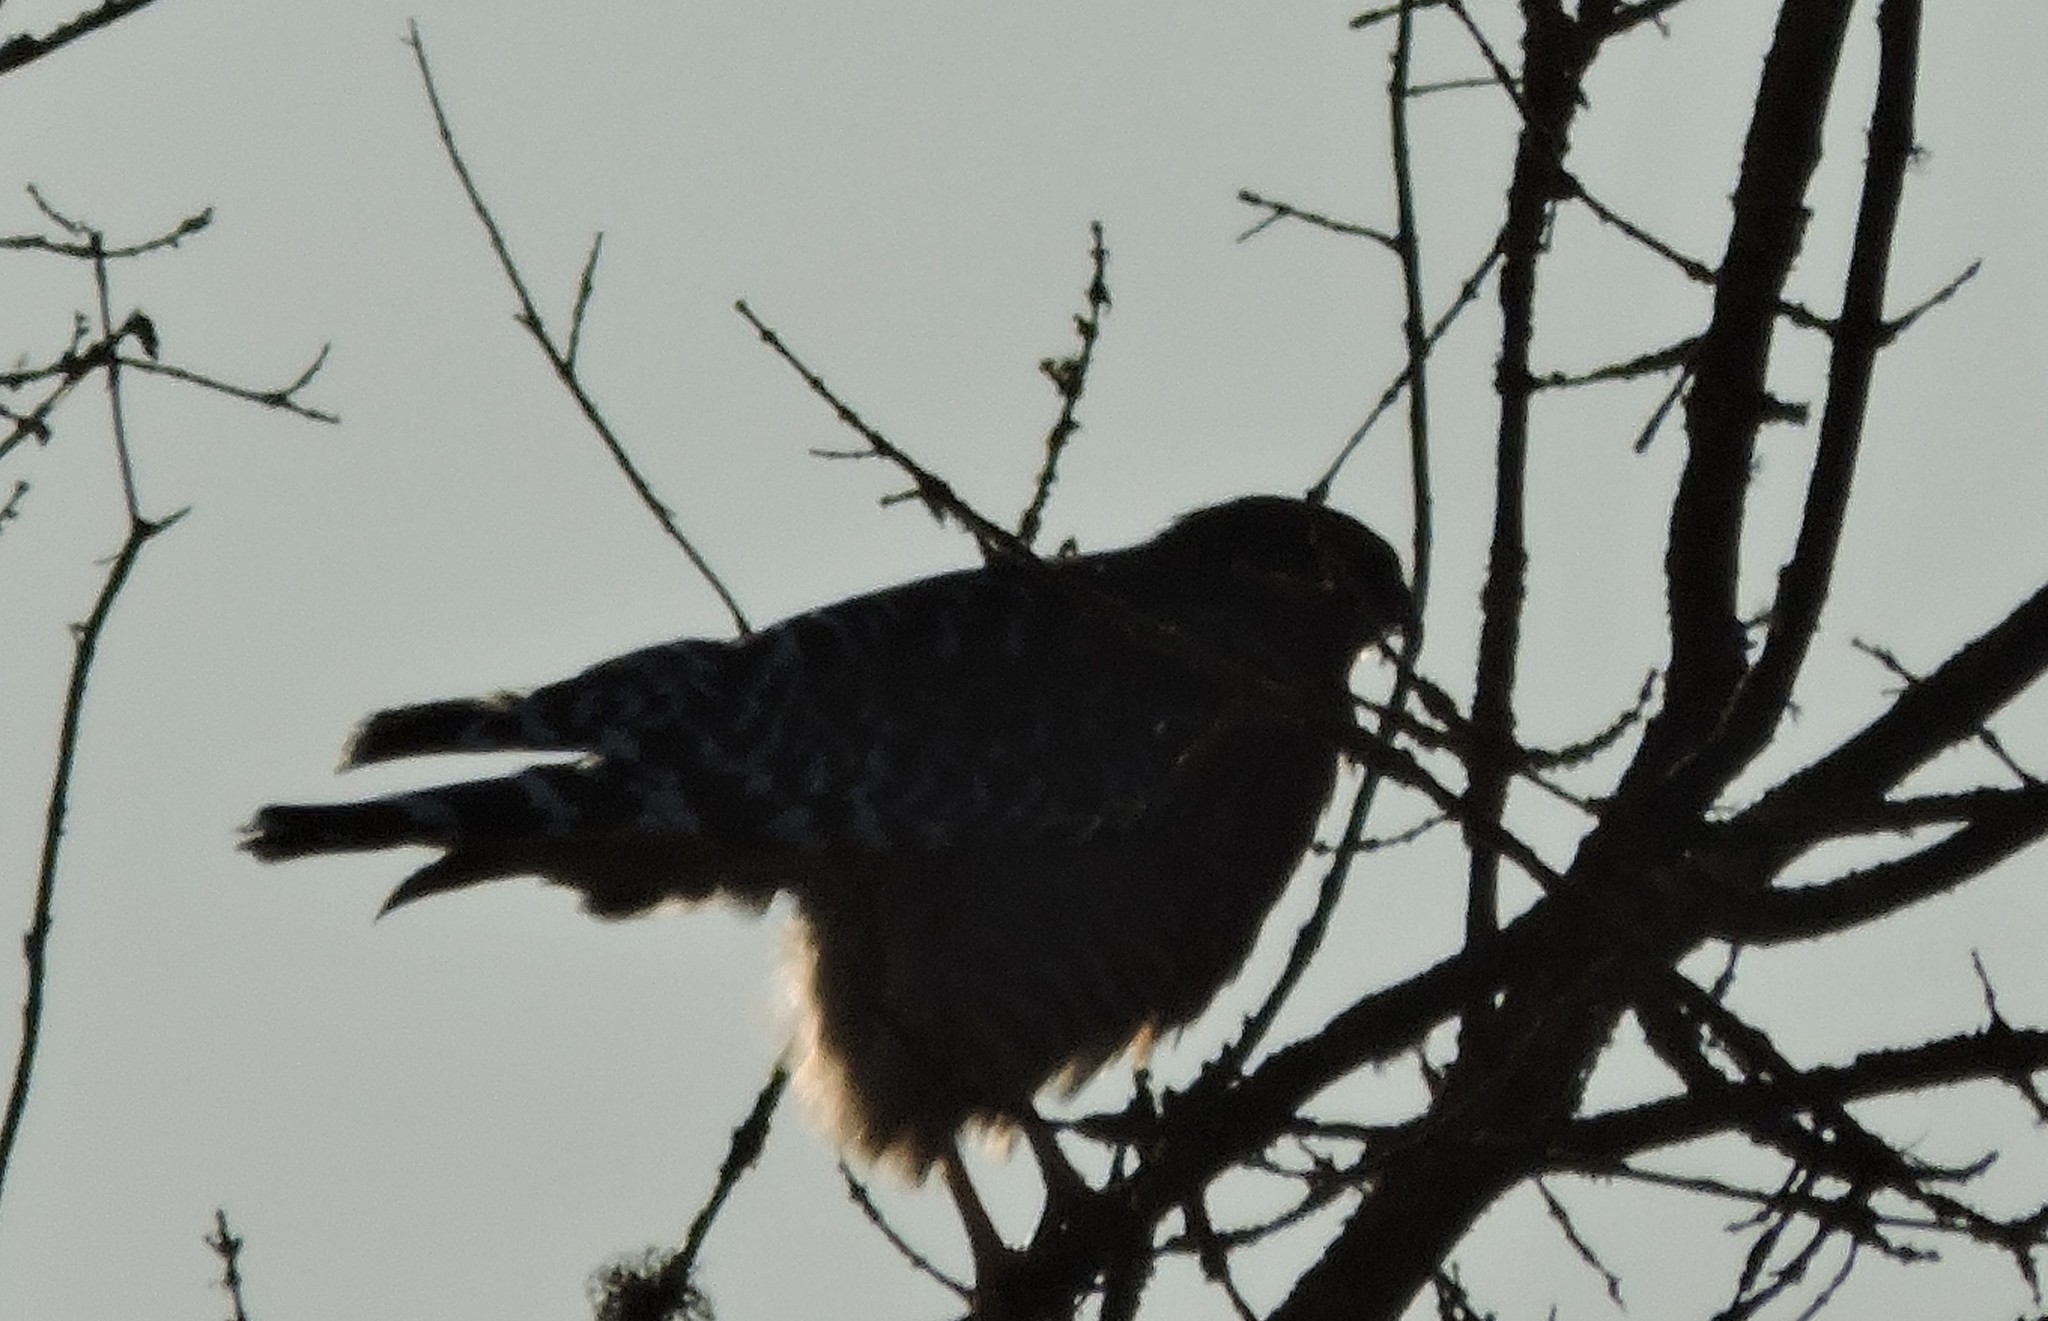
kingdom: Animalia
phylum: Chordata
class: Aves
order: Accipitriformes
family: Accipitridae
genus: Buteo
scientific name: Buteo lineatus
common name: Red-shouldered hawk
